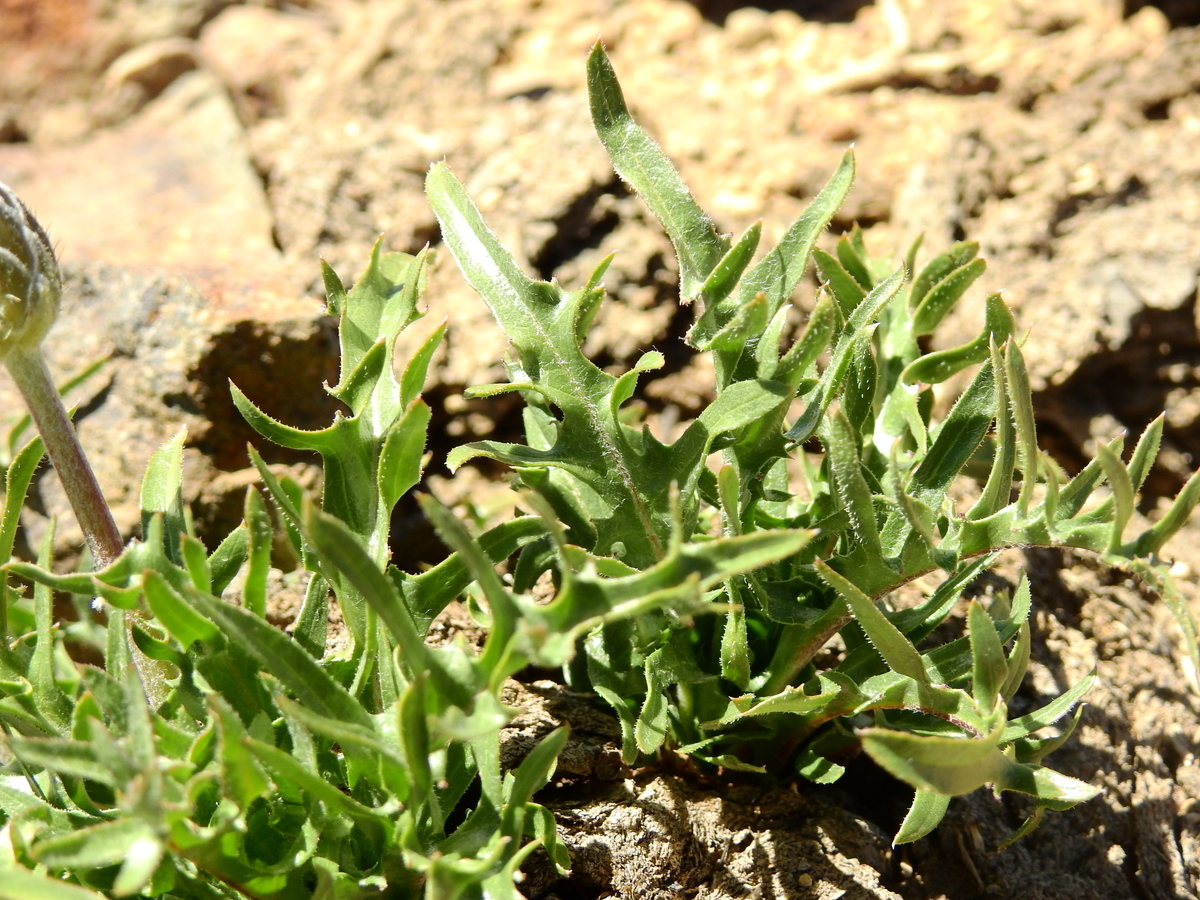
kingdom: Plantae
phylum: Tracheophyta
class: Magnoliopsida
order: Asterales
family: Asteraceae
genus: Hypochaeris
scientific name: Hypochaeris tenuifolia
